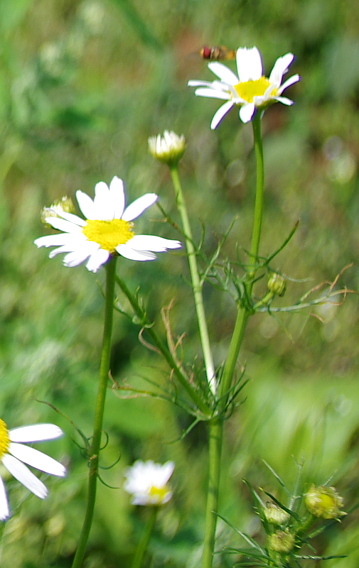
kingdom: Plantae
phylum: Tracheophyta
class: Magnoliopsida
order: Asterales
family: Asteraceae
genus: Tripleurospermum
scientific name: Tripleurospermum inodorum
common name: Scentless mayweed
